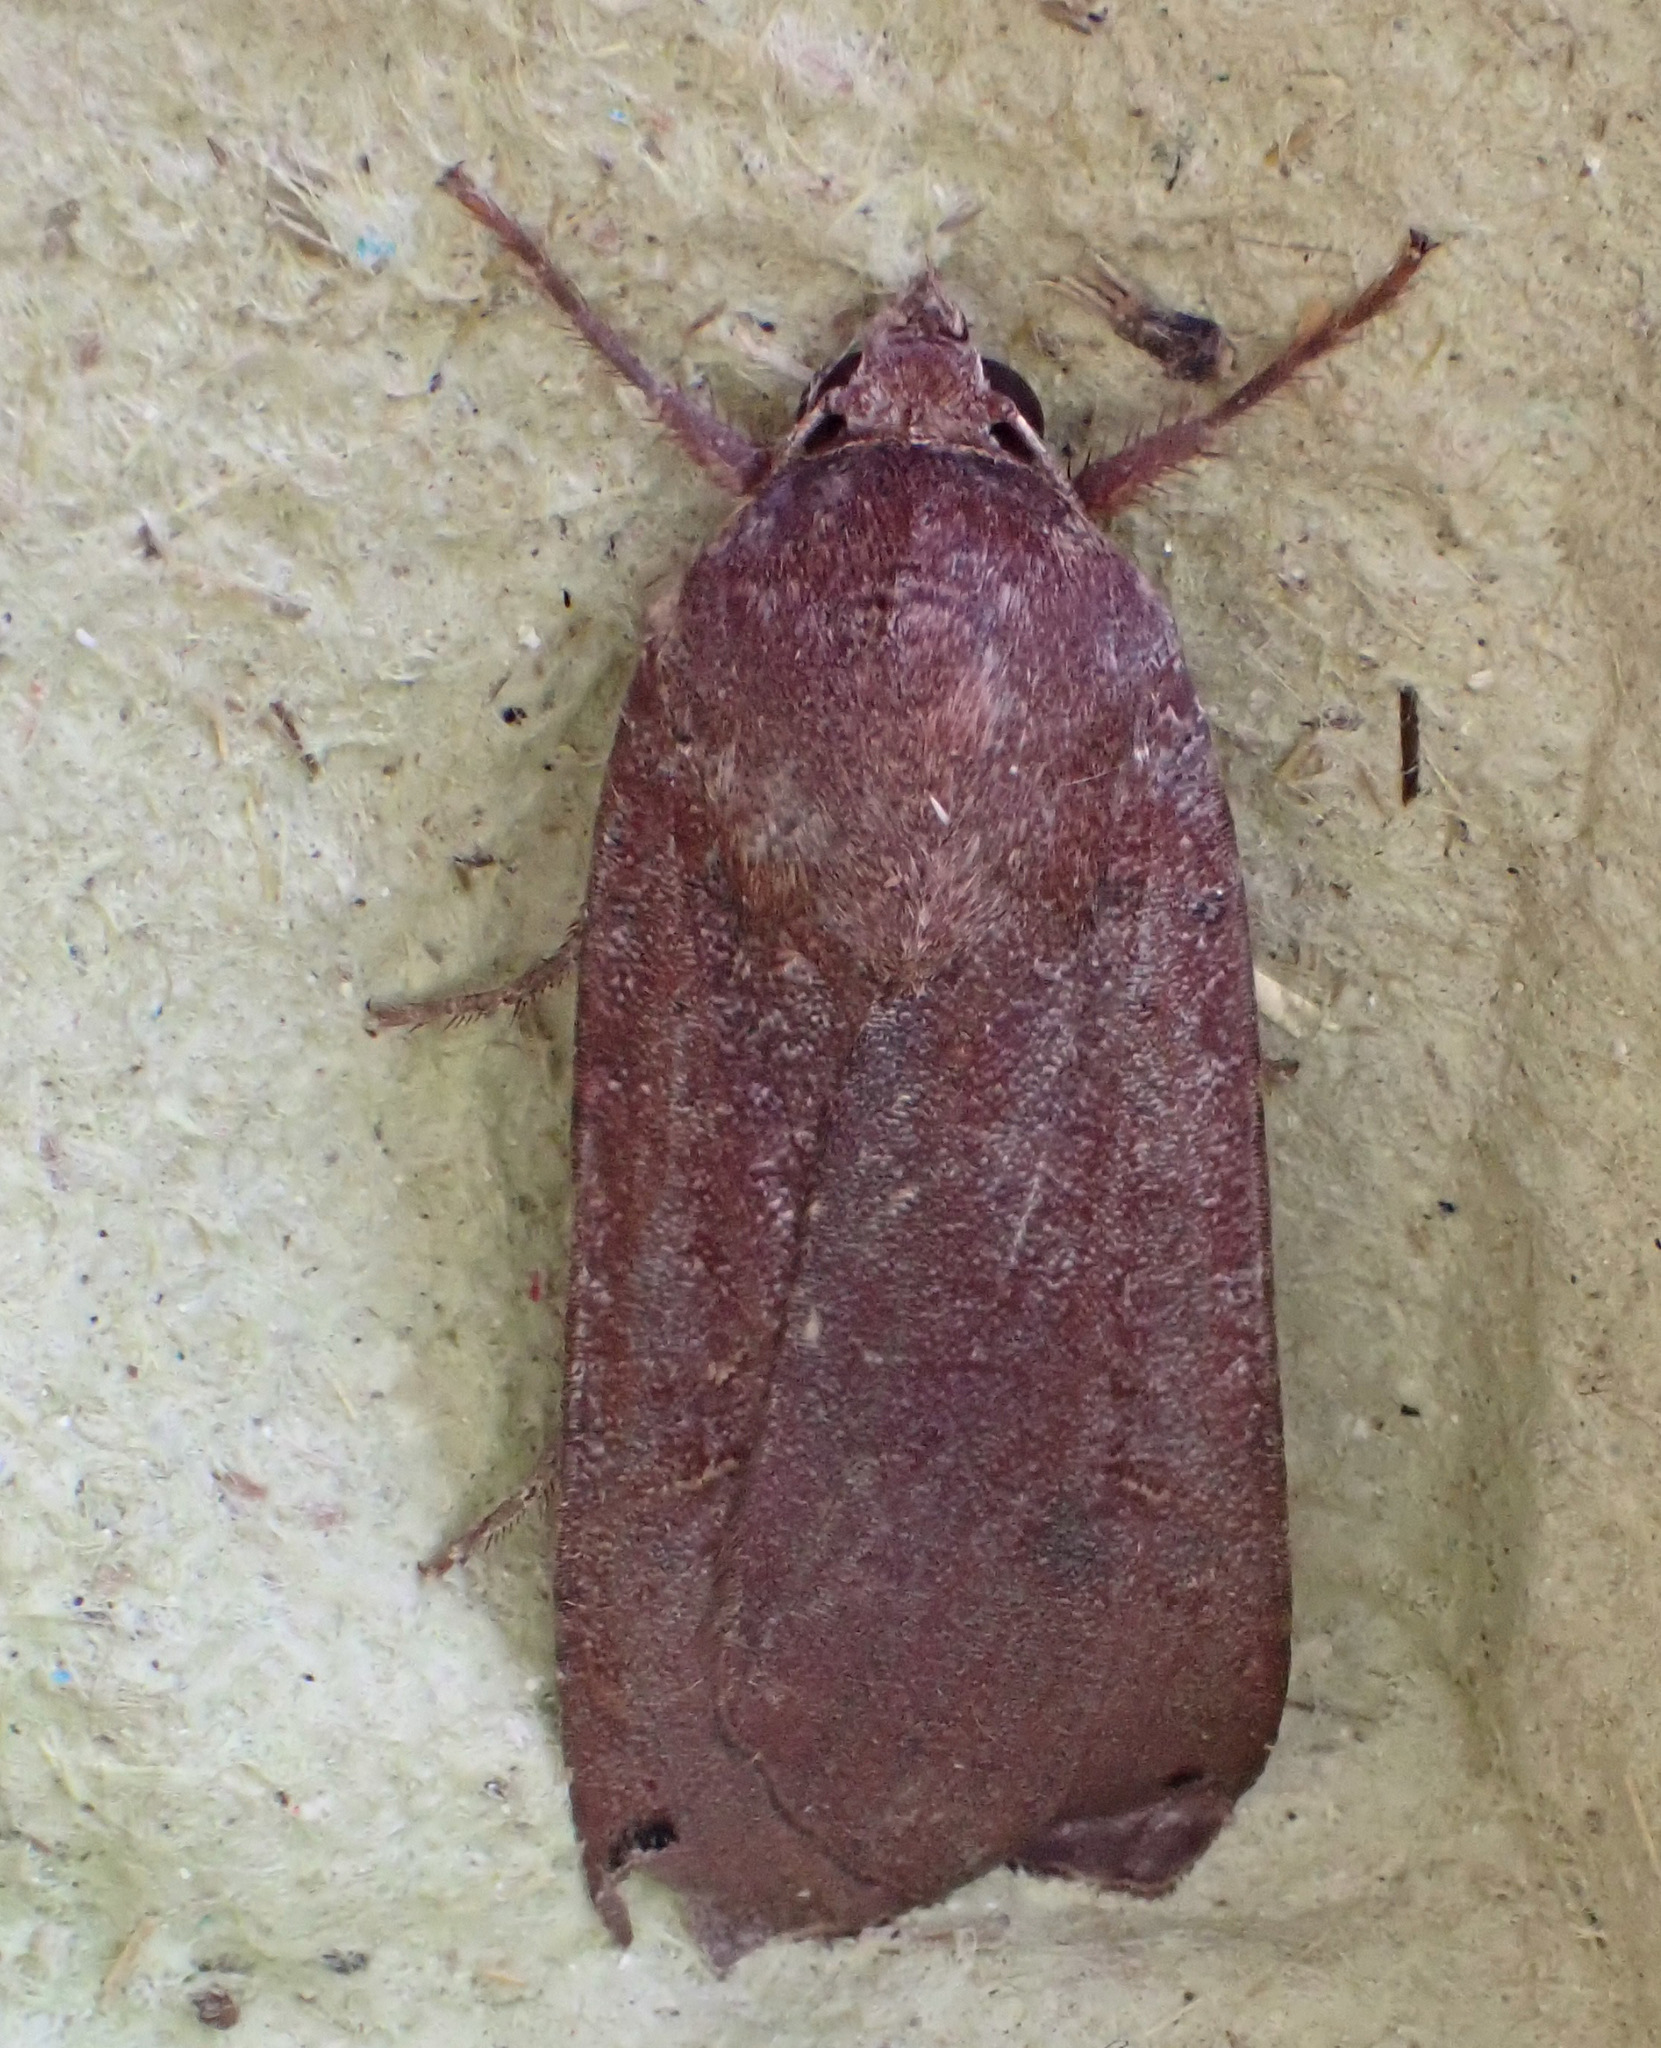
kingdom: Animalia
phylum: Arthropoda
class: Insecta
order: Lepidoptera
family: Noctuidae
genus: Noctua
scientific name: Noctua pronuba
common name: Large yellow underwing
